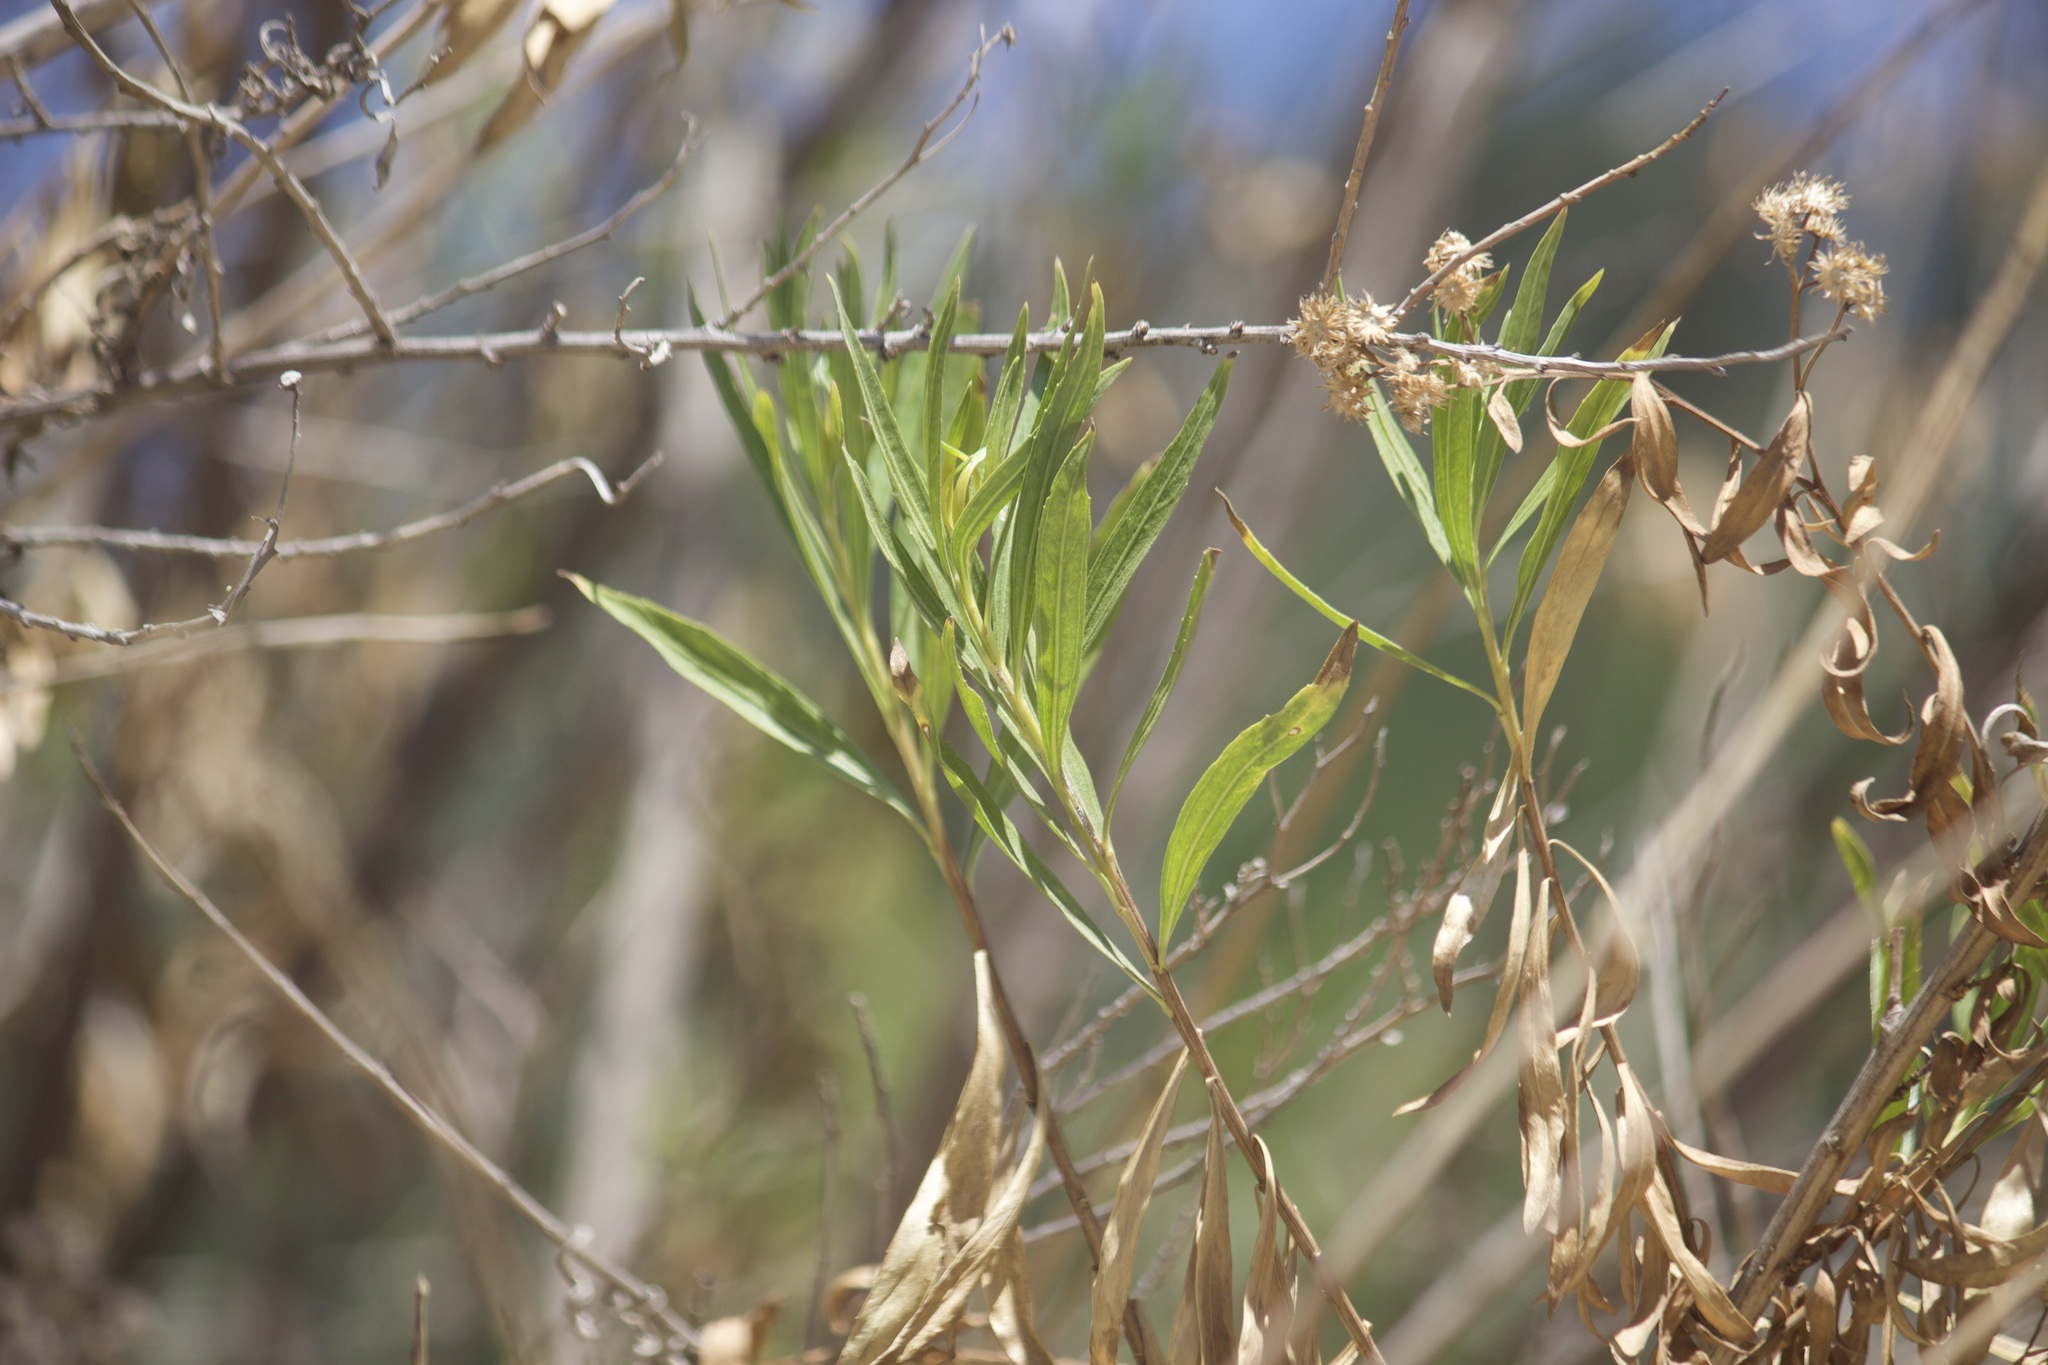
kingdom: Plantae
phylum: Tracheophyta
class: Magnoliopsida
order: Asterales
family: Asteraceae
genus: Baccharis
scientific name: Baccharis salicifolia
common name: Sticky baccharis
